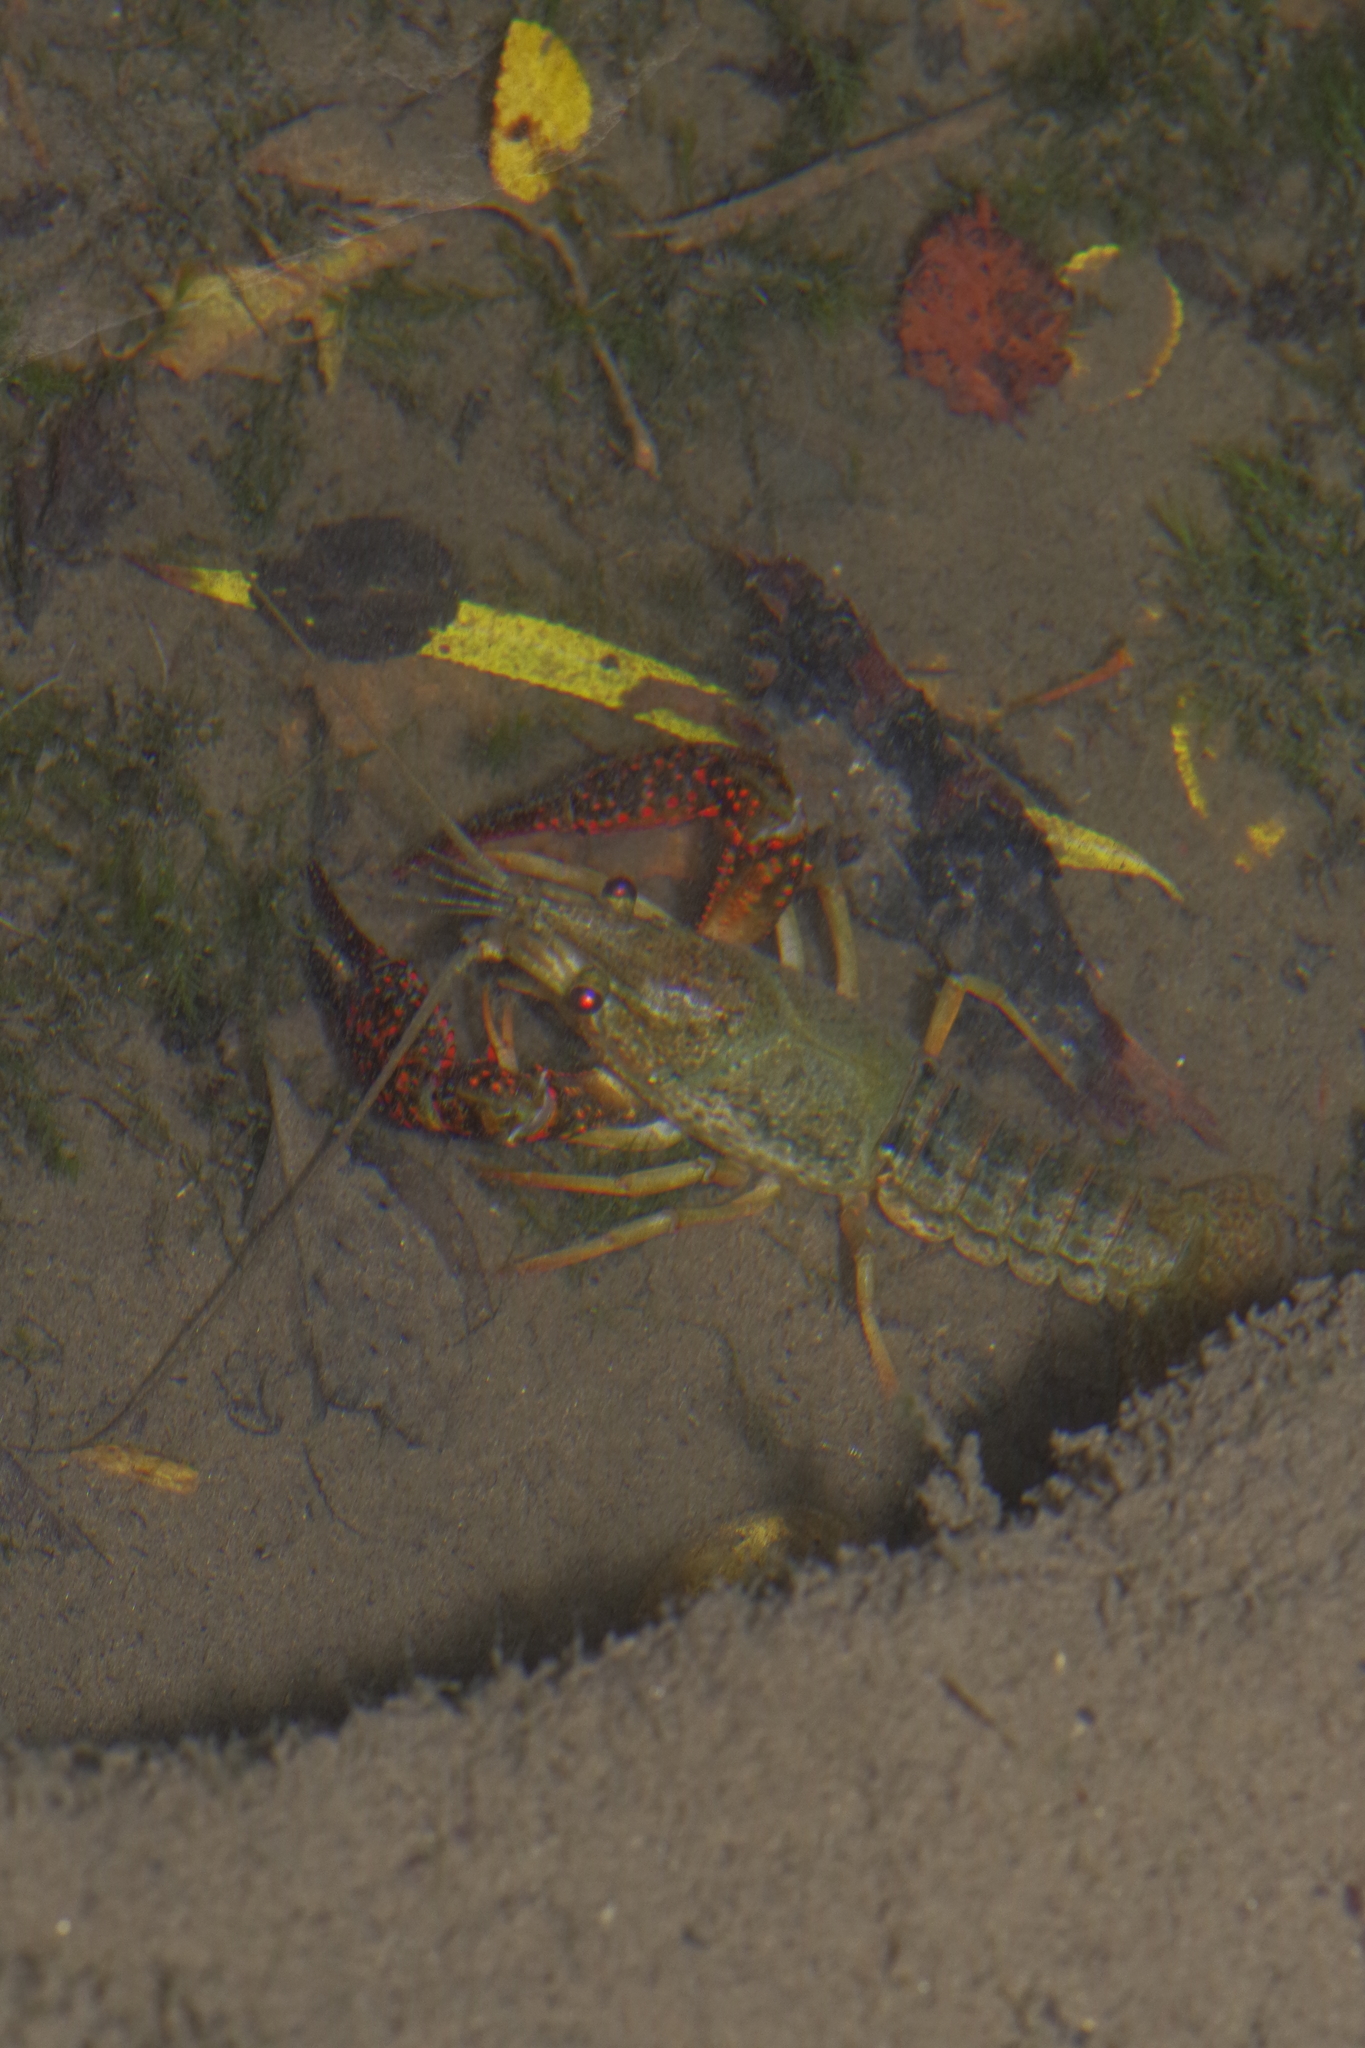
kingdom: Animalia
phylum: Arthropoda
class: Malacostraca
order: Decapoda
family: Cambaridae
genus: Procambarus
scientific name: Procambarus clarkii
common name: Red swamp crayfish
